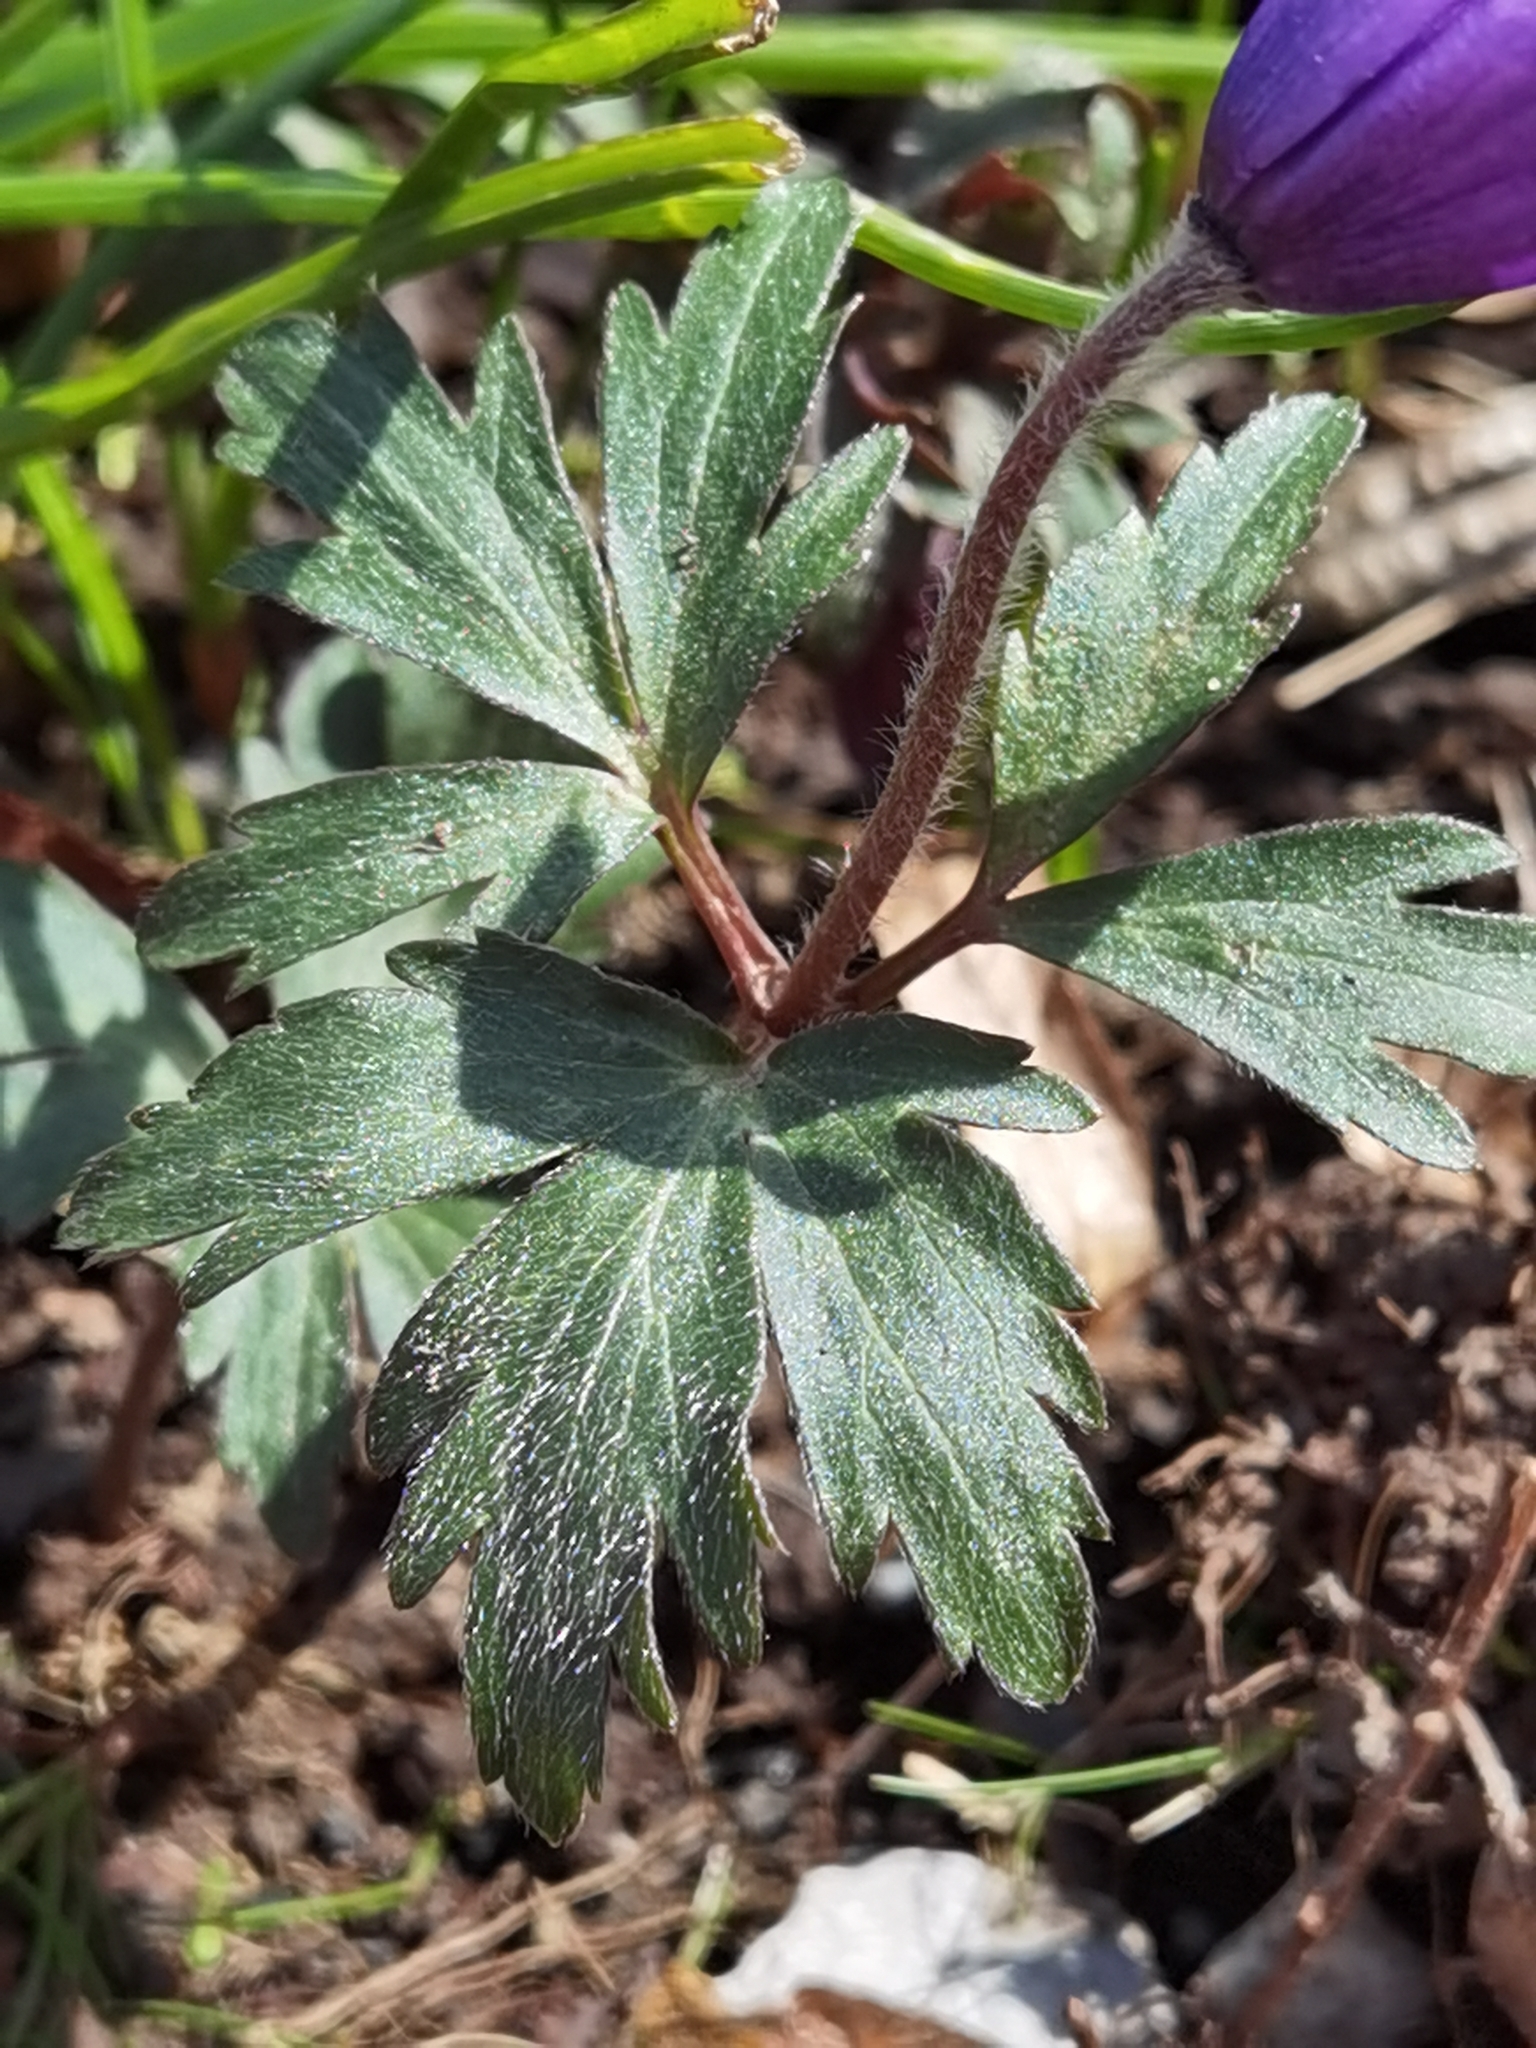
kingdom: Plantae
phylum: Tracheophyta
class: Magnoliopsida
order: Ranunculales
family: Ranunculaceae
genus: Anemone
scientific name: Anemone blanda
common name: Balkan anemone
